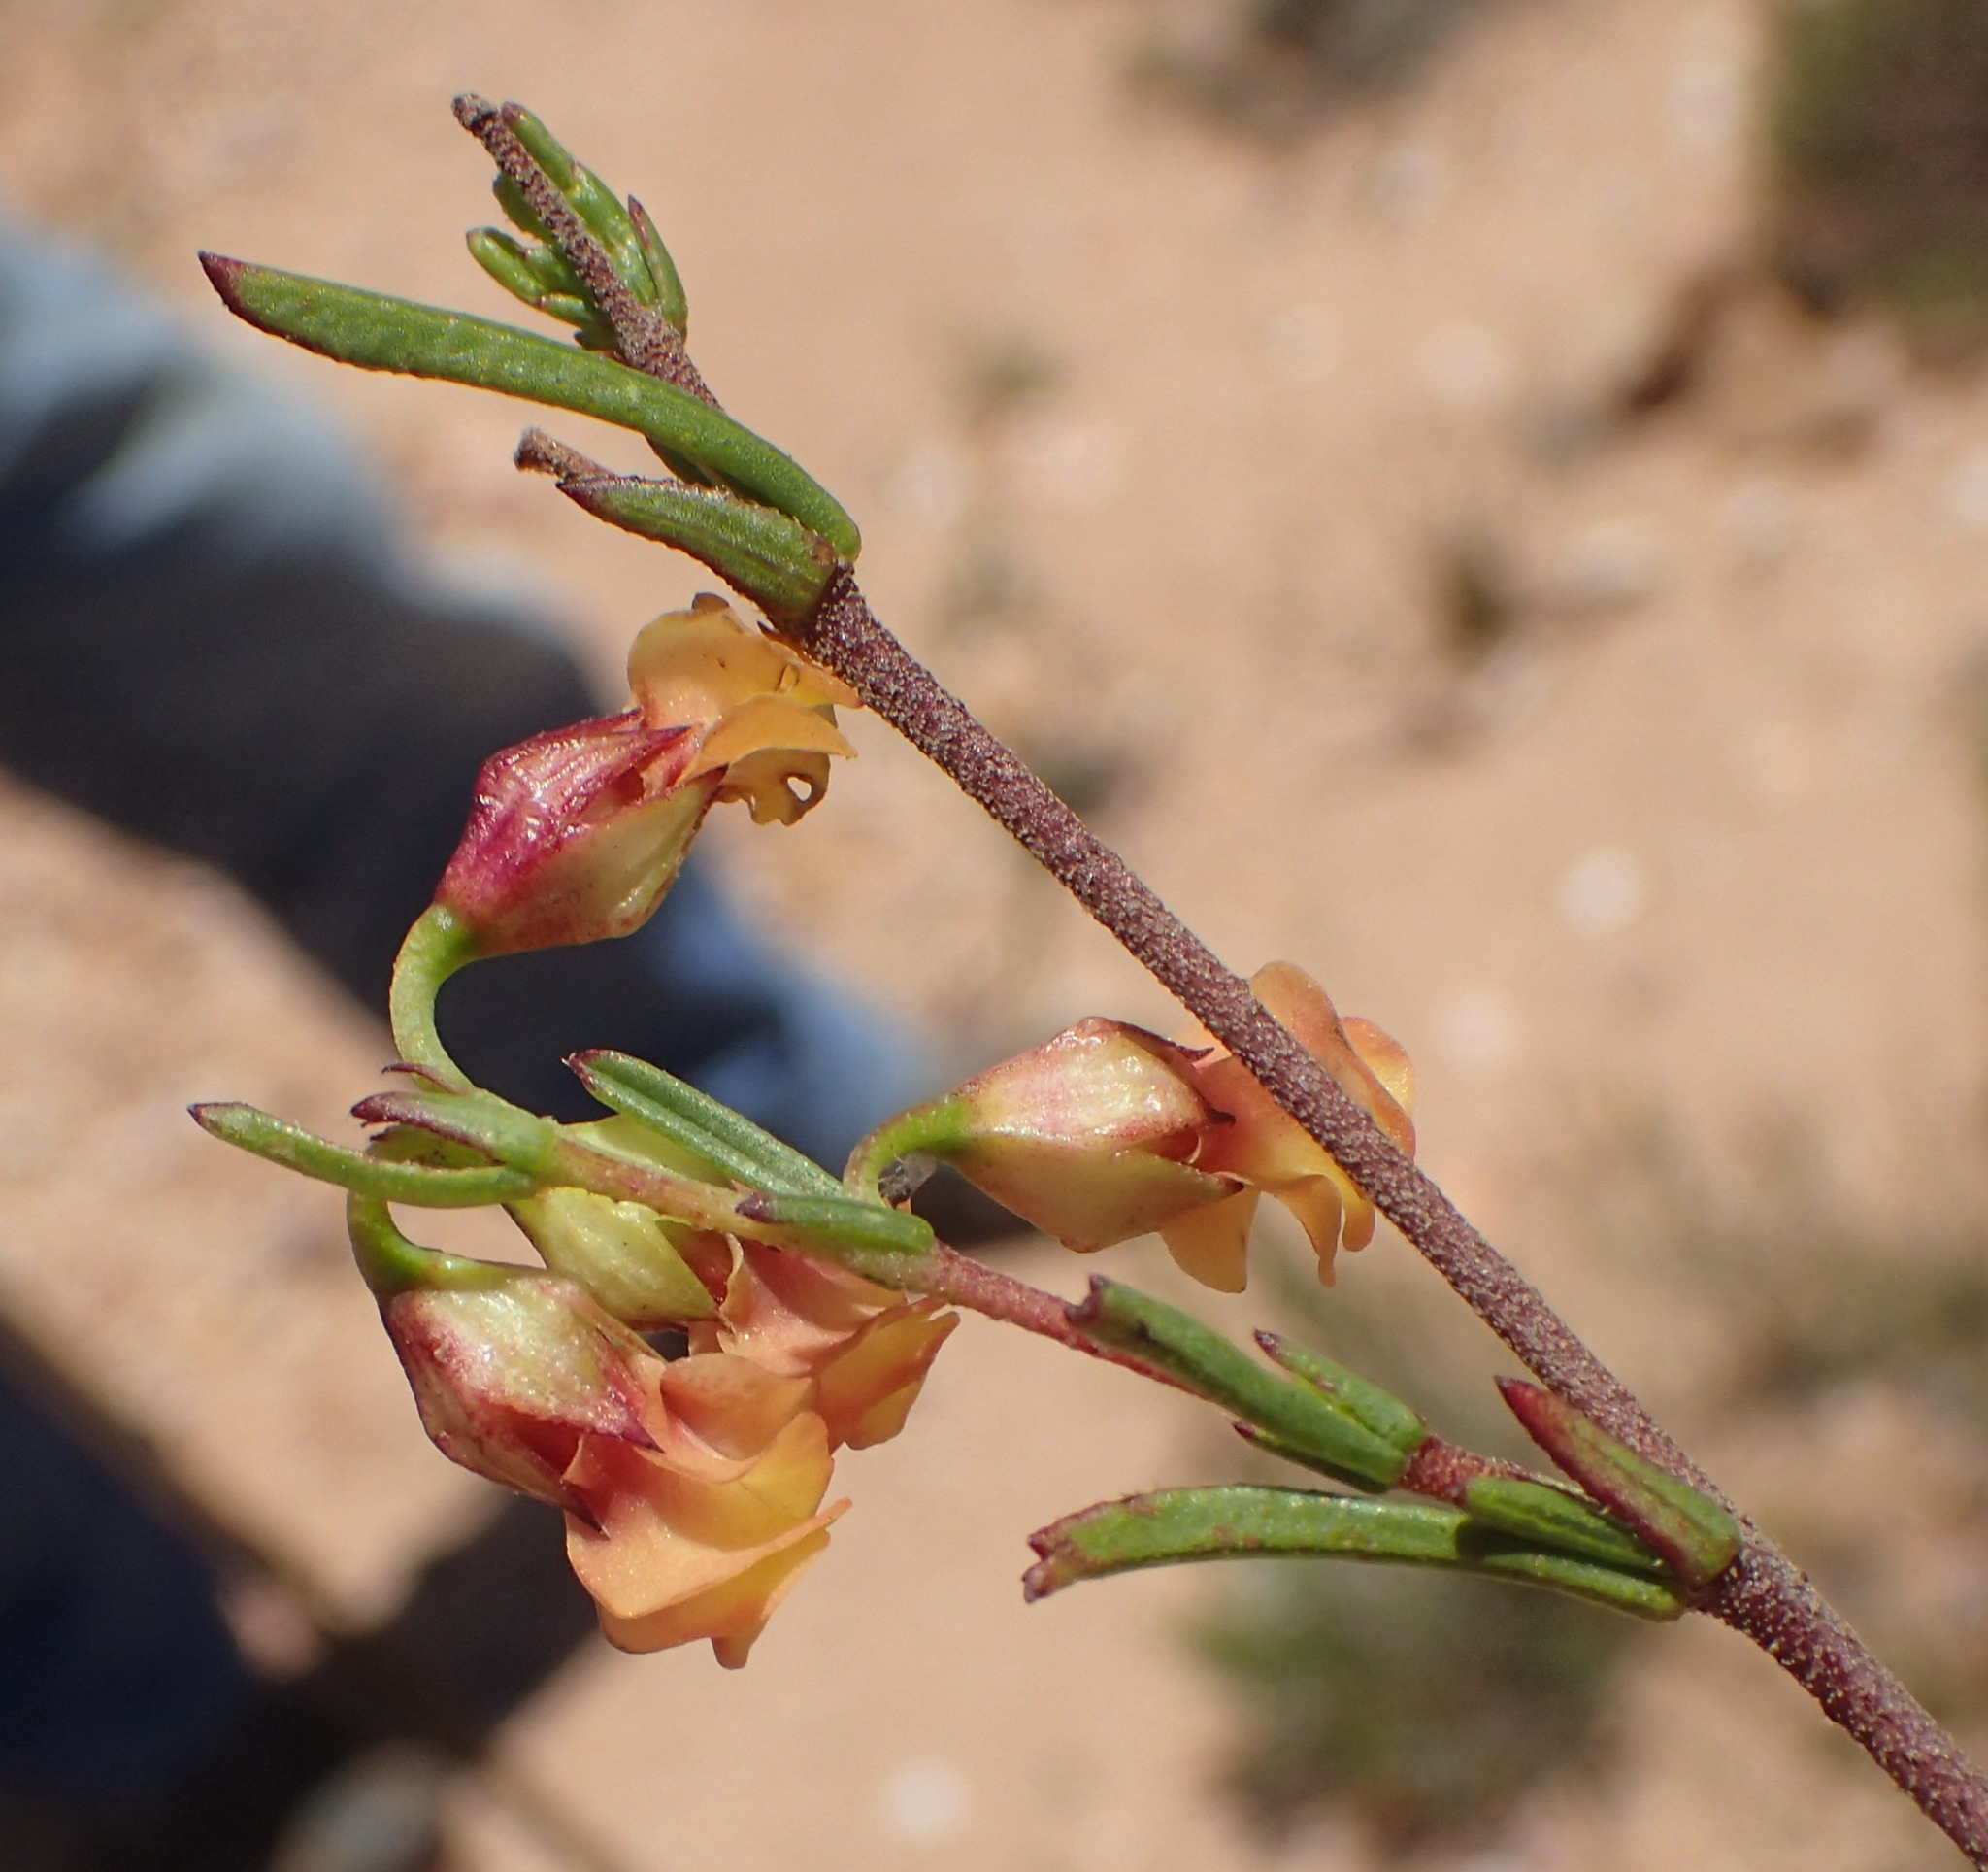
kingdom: Plantae
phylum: Tracheophyta
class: Magnoliopsida
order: Malvales
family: Malvaceae
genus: Hermannia
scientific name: Hermannia
